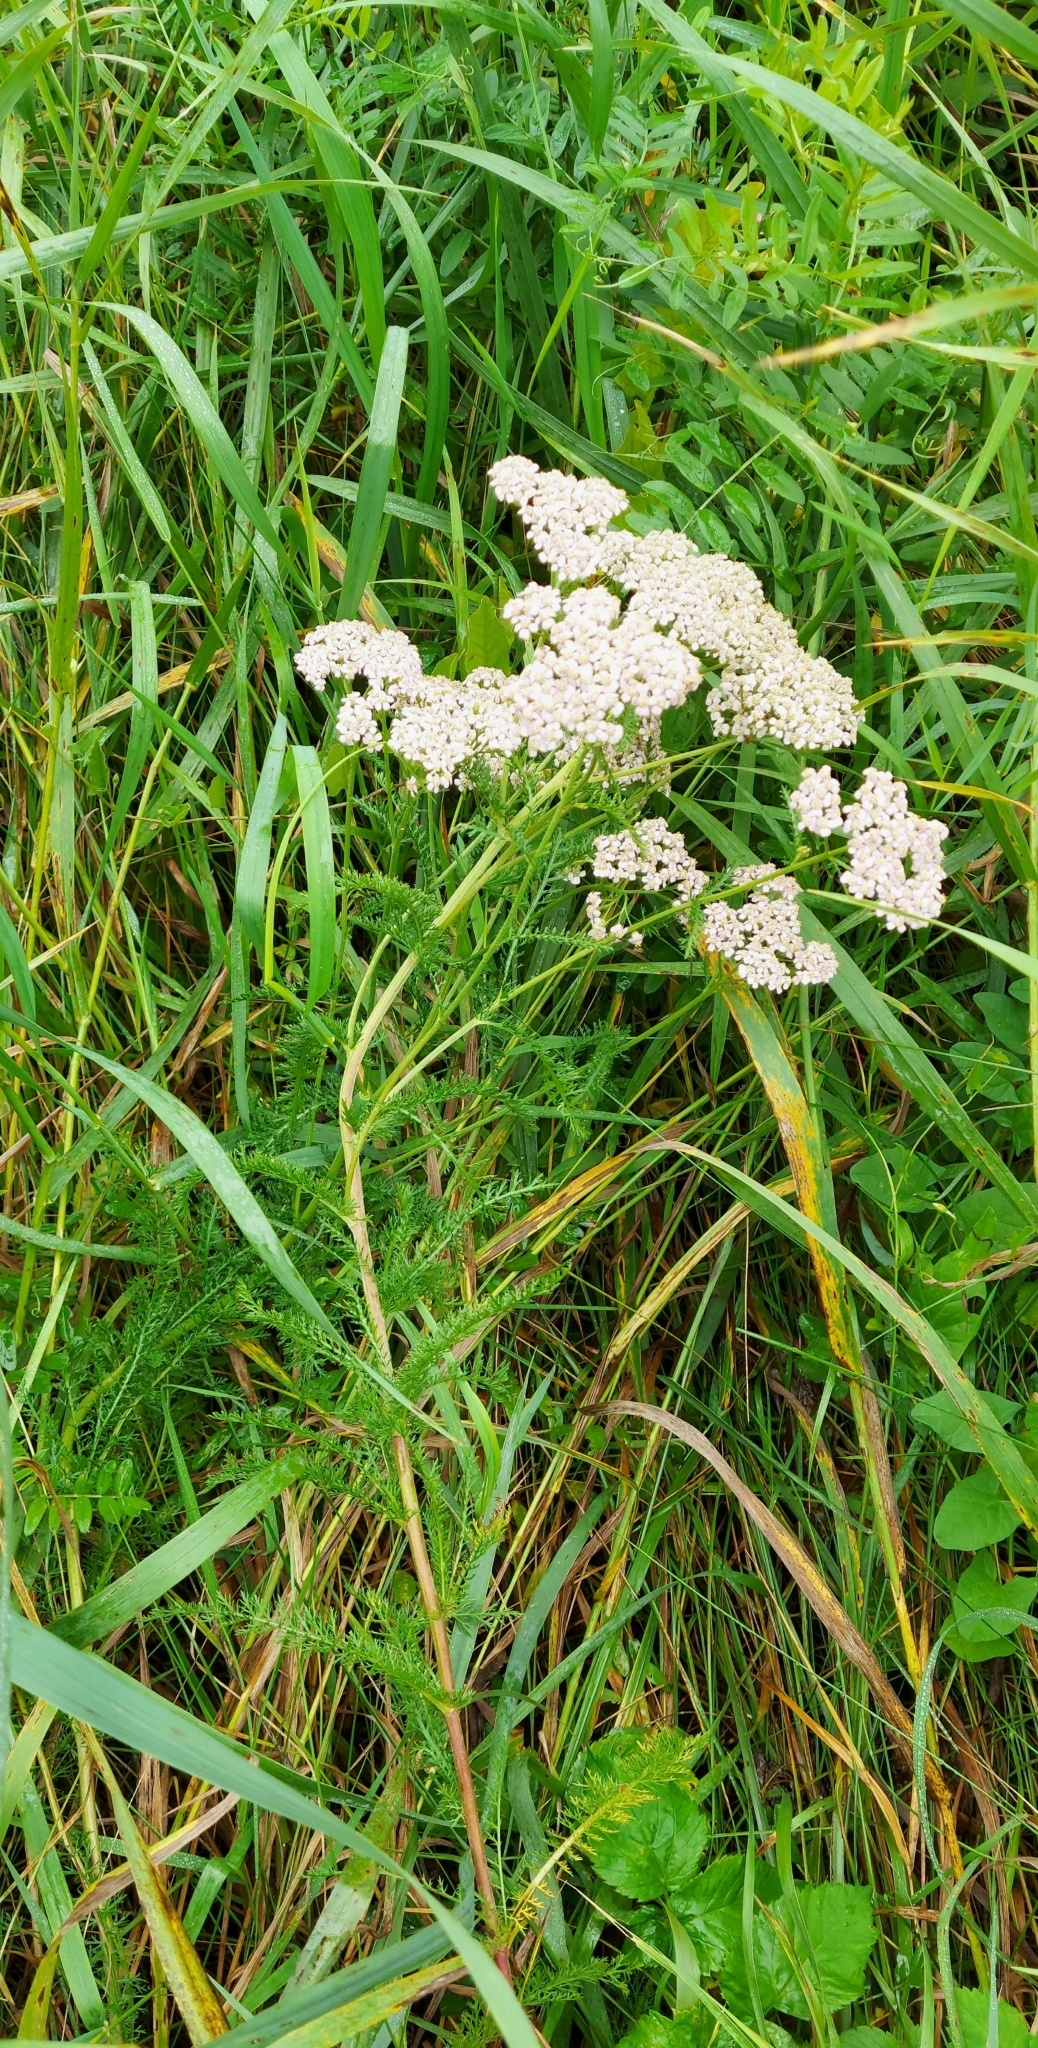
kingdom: Plantae
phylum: Tracheophyta
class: Magnoliopsida
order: Asterales
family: Asteraceae
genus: Achillea
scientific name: Achillea
